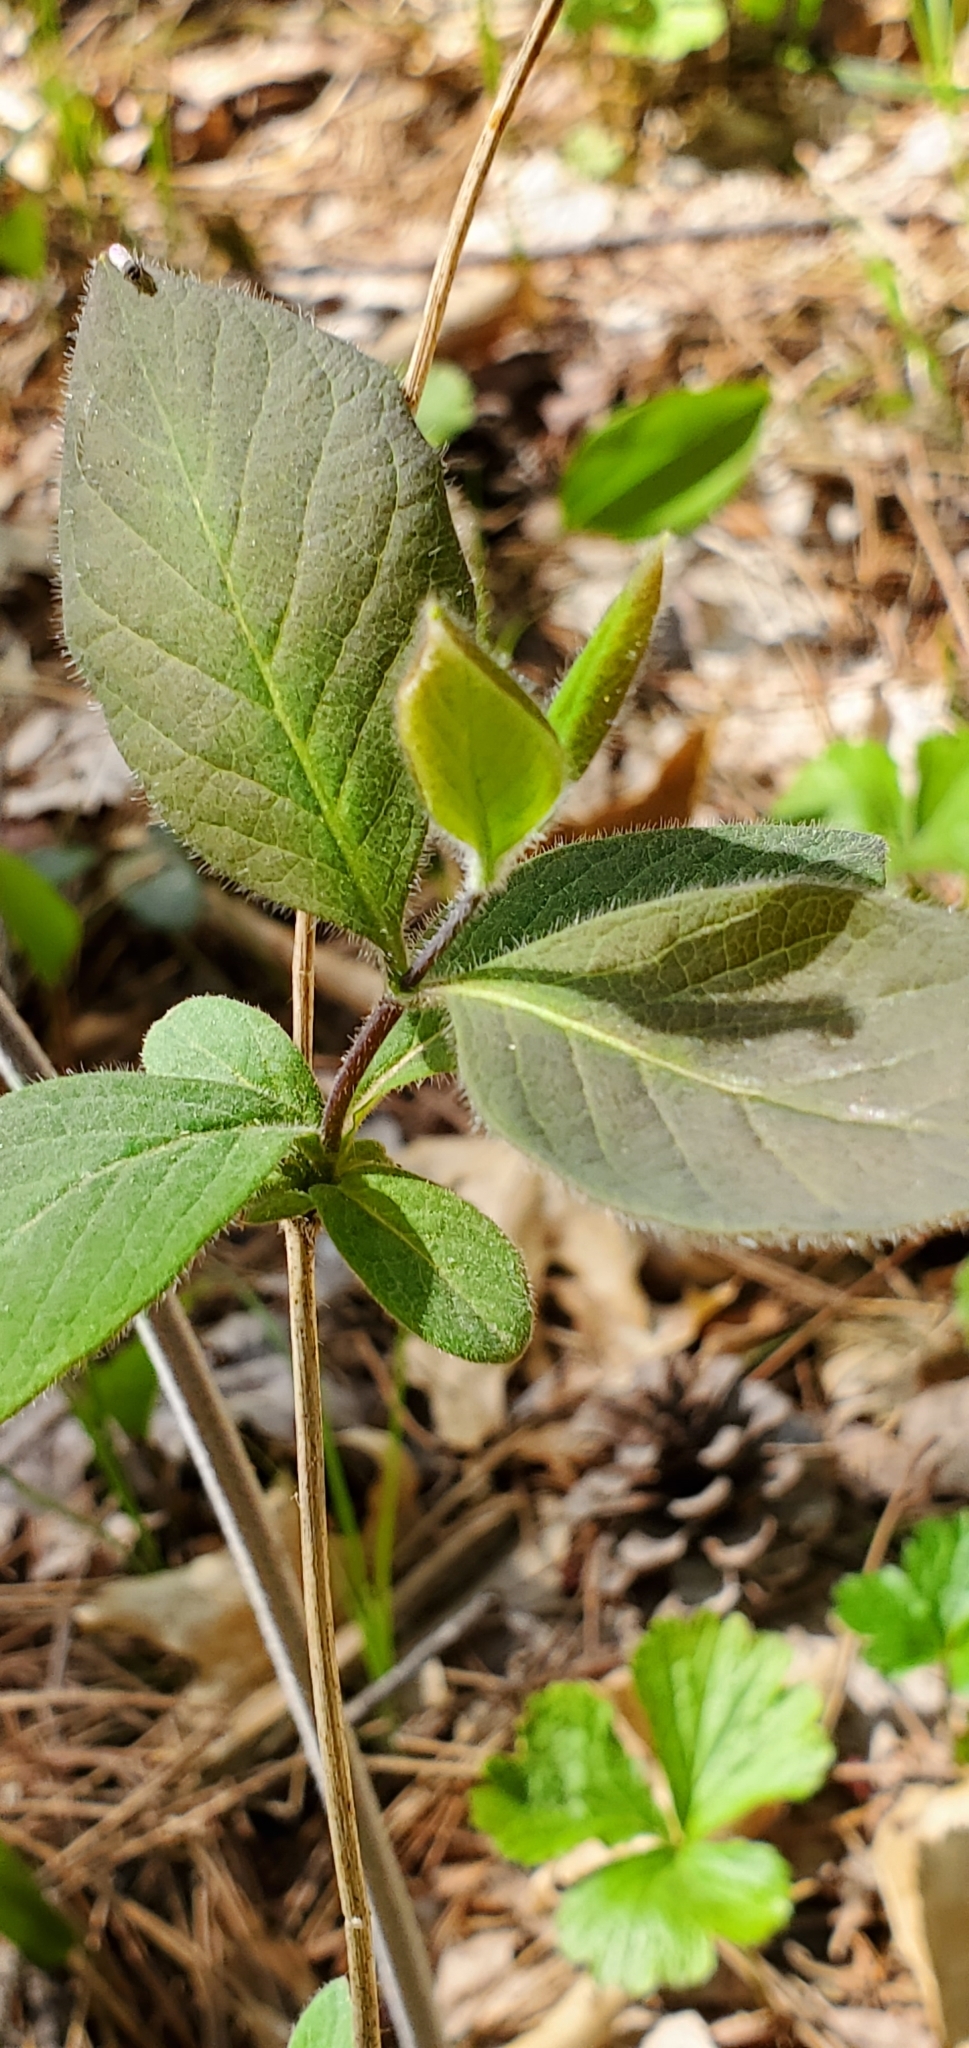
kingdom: Plantae
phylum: Tracheophyta
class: Magnoliopsida
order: Dipsacales
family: Caprifoliaceae
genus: Lonicera
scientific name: Lonicera hirsuta
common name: Hairy honeysuckle
